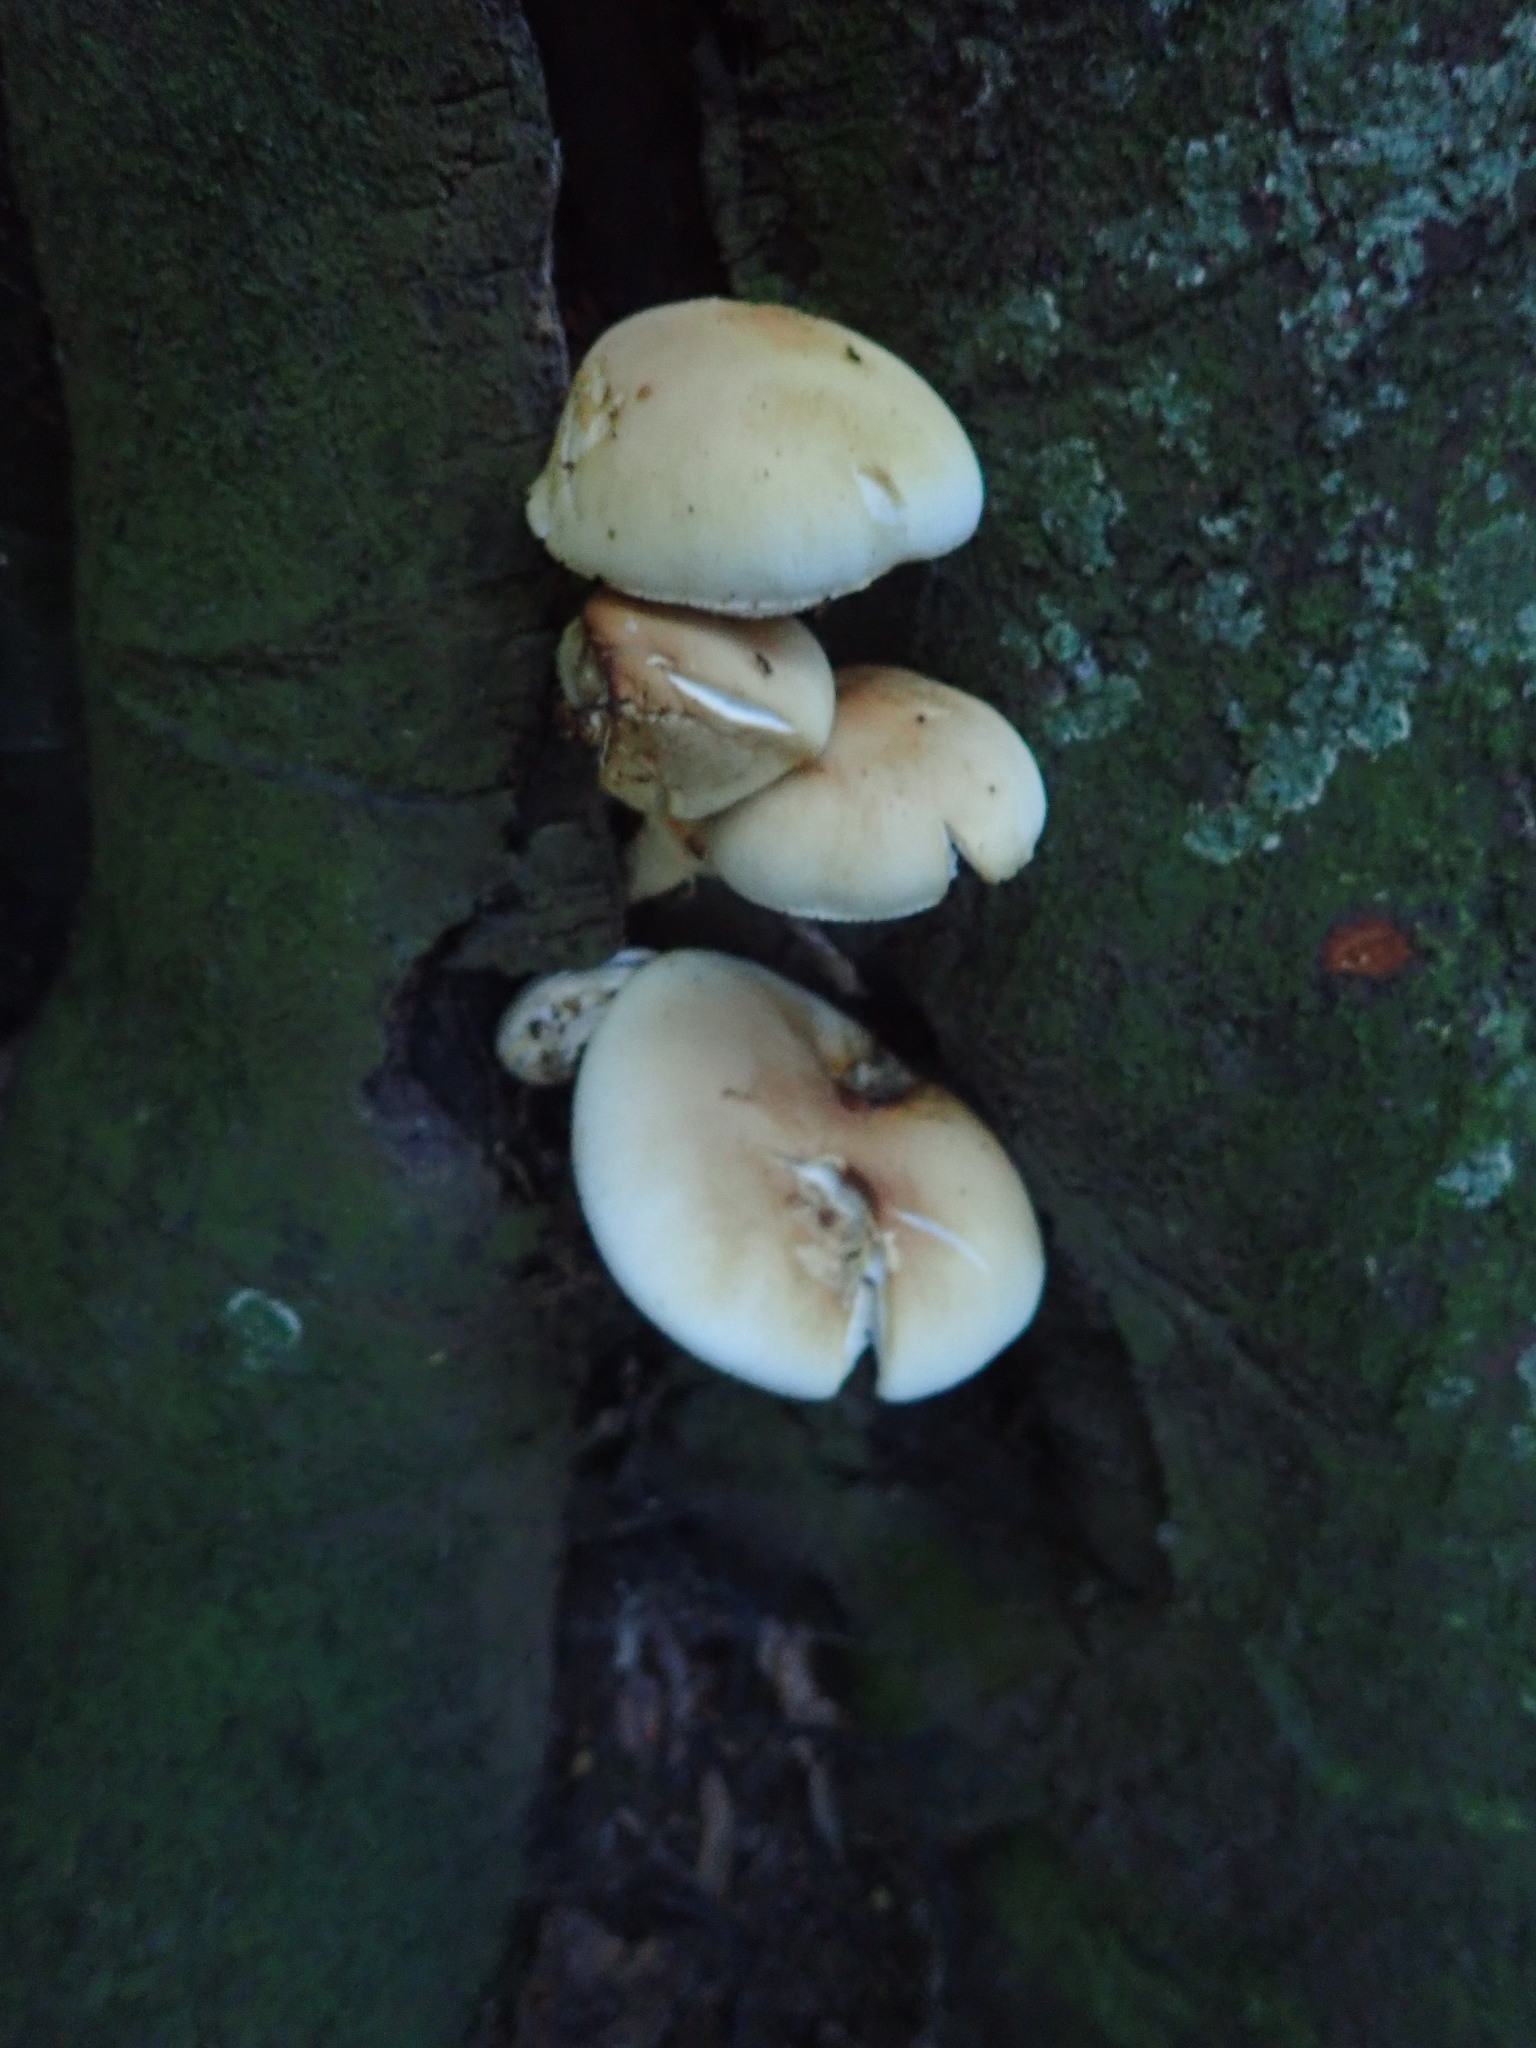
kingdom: Fungi
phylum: Basidiomycota
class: Agaricomycetes
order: Agaricales
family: Tubariaceae
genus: Cyclocybe
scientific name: Cyclocybe parasitica
